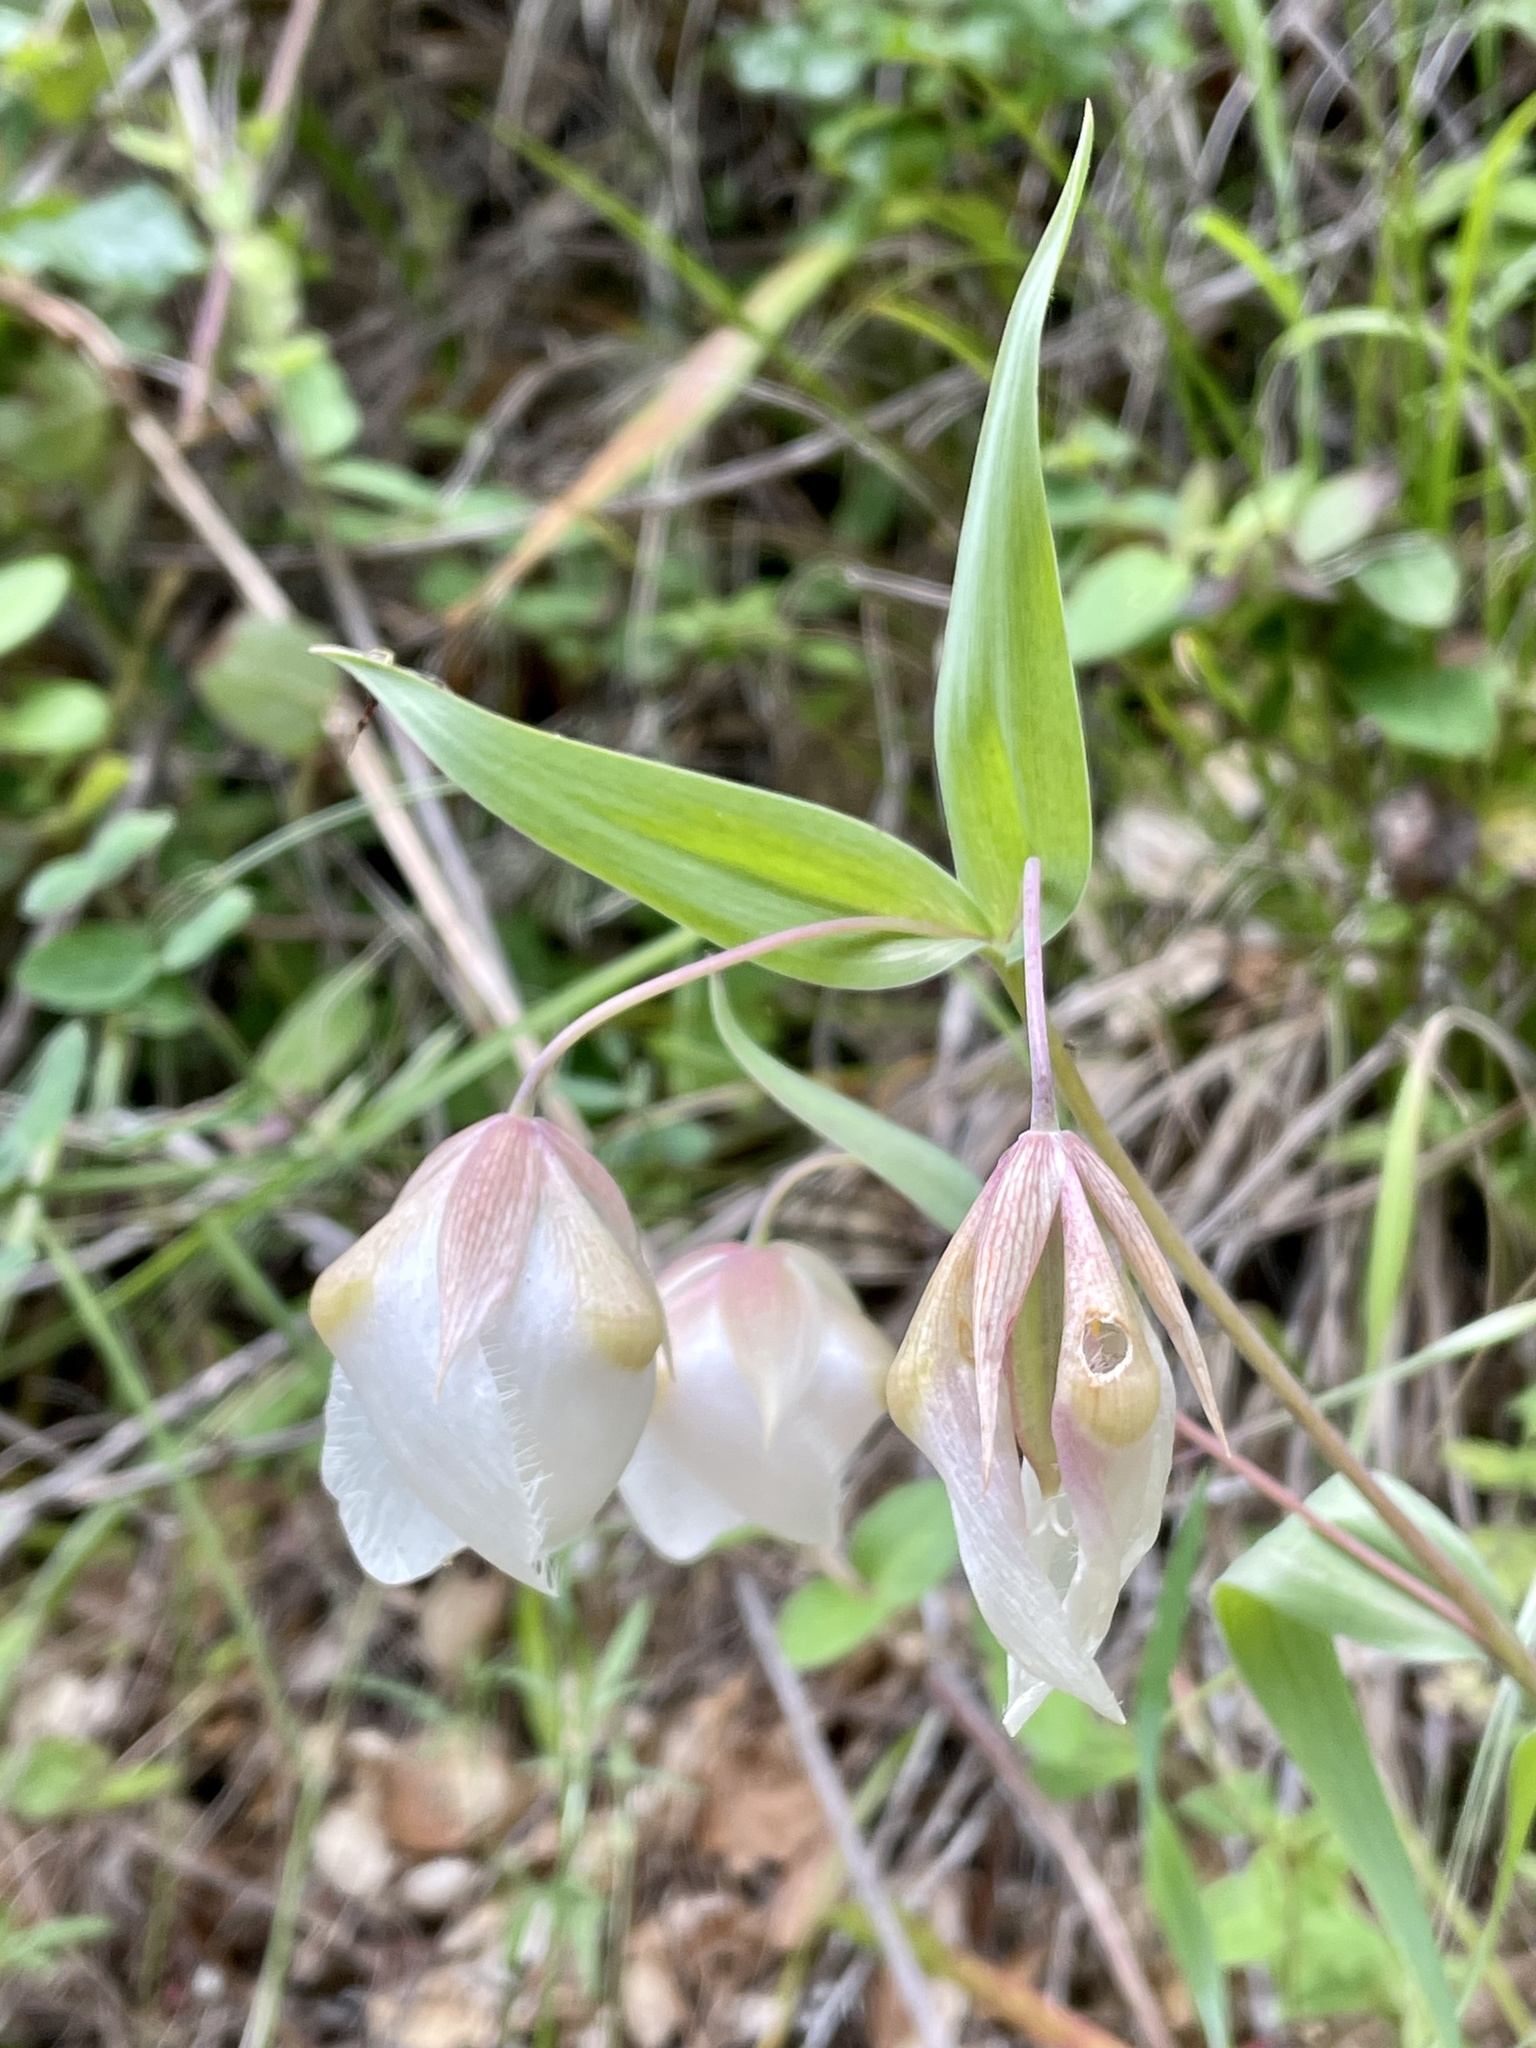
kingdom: Plantae
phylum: Tracheophyta
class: Liliopsida
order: Liliales
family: Liliaceae
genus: Calochortus
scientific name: Calochortus albus
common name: Fairy-lantern
